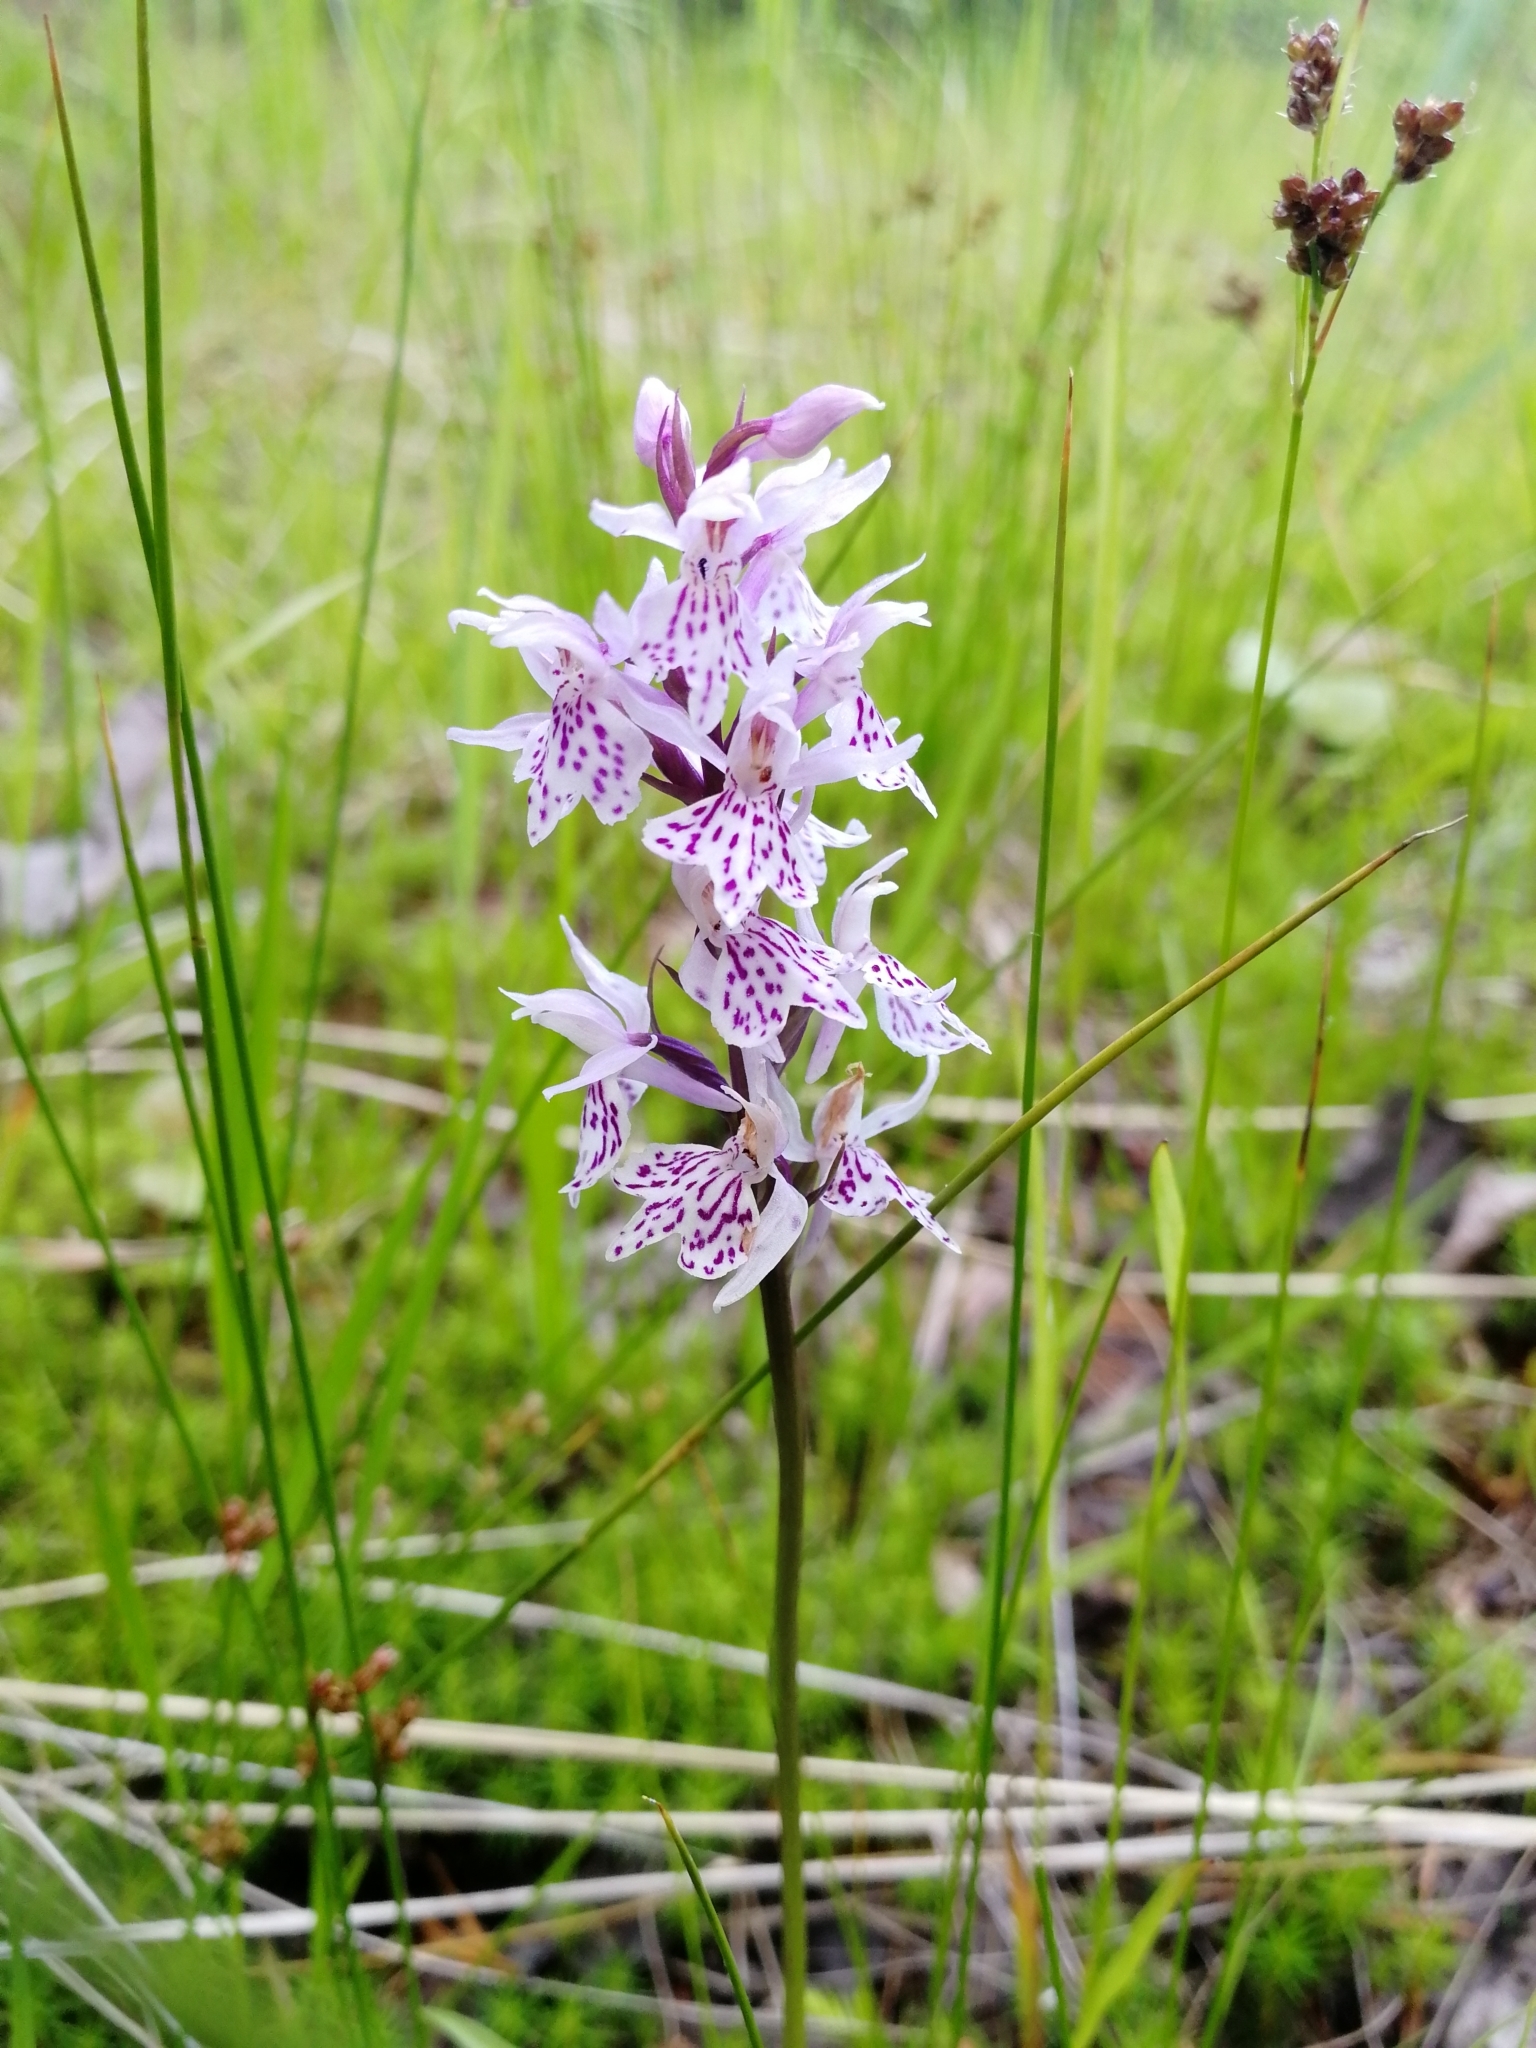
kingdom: Plantae
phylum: Tracheophyta
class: Liliopsida
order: Asparagales
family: Orchidaceae
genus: Dactylorhiza
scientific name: Dactylorhiza maculata
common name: Heath spotted-orchid
